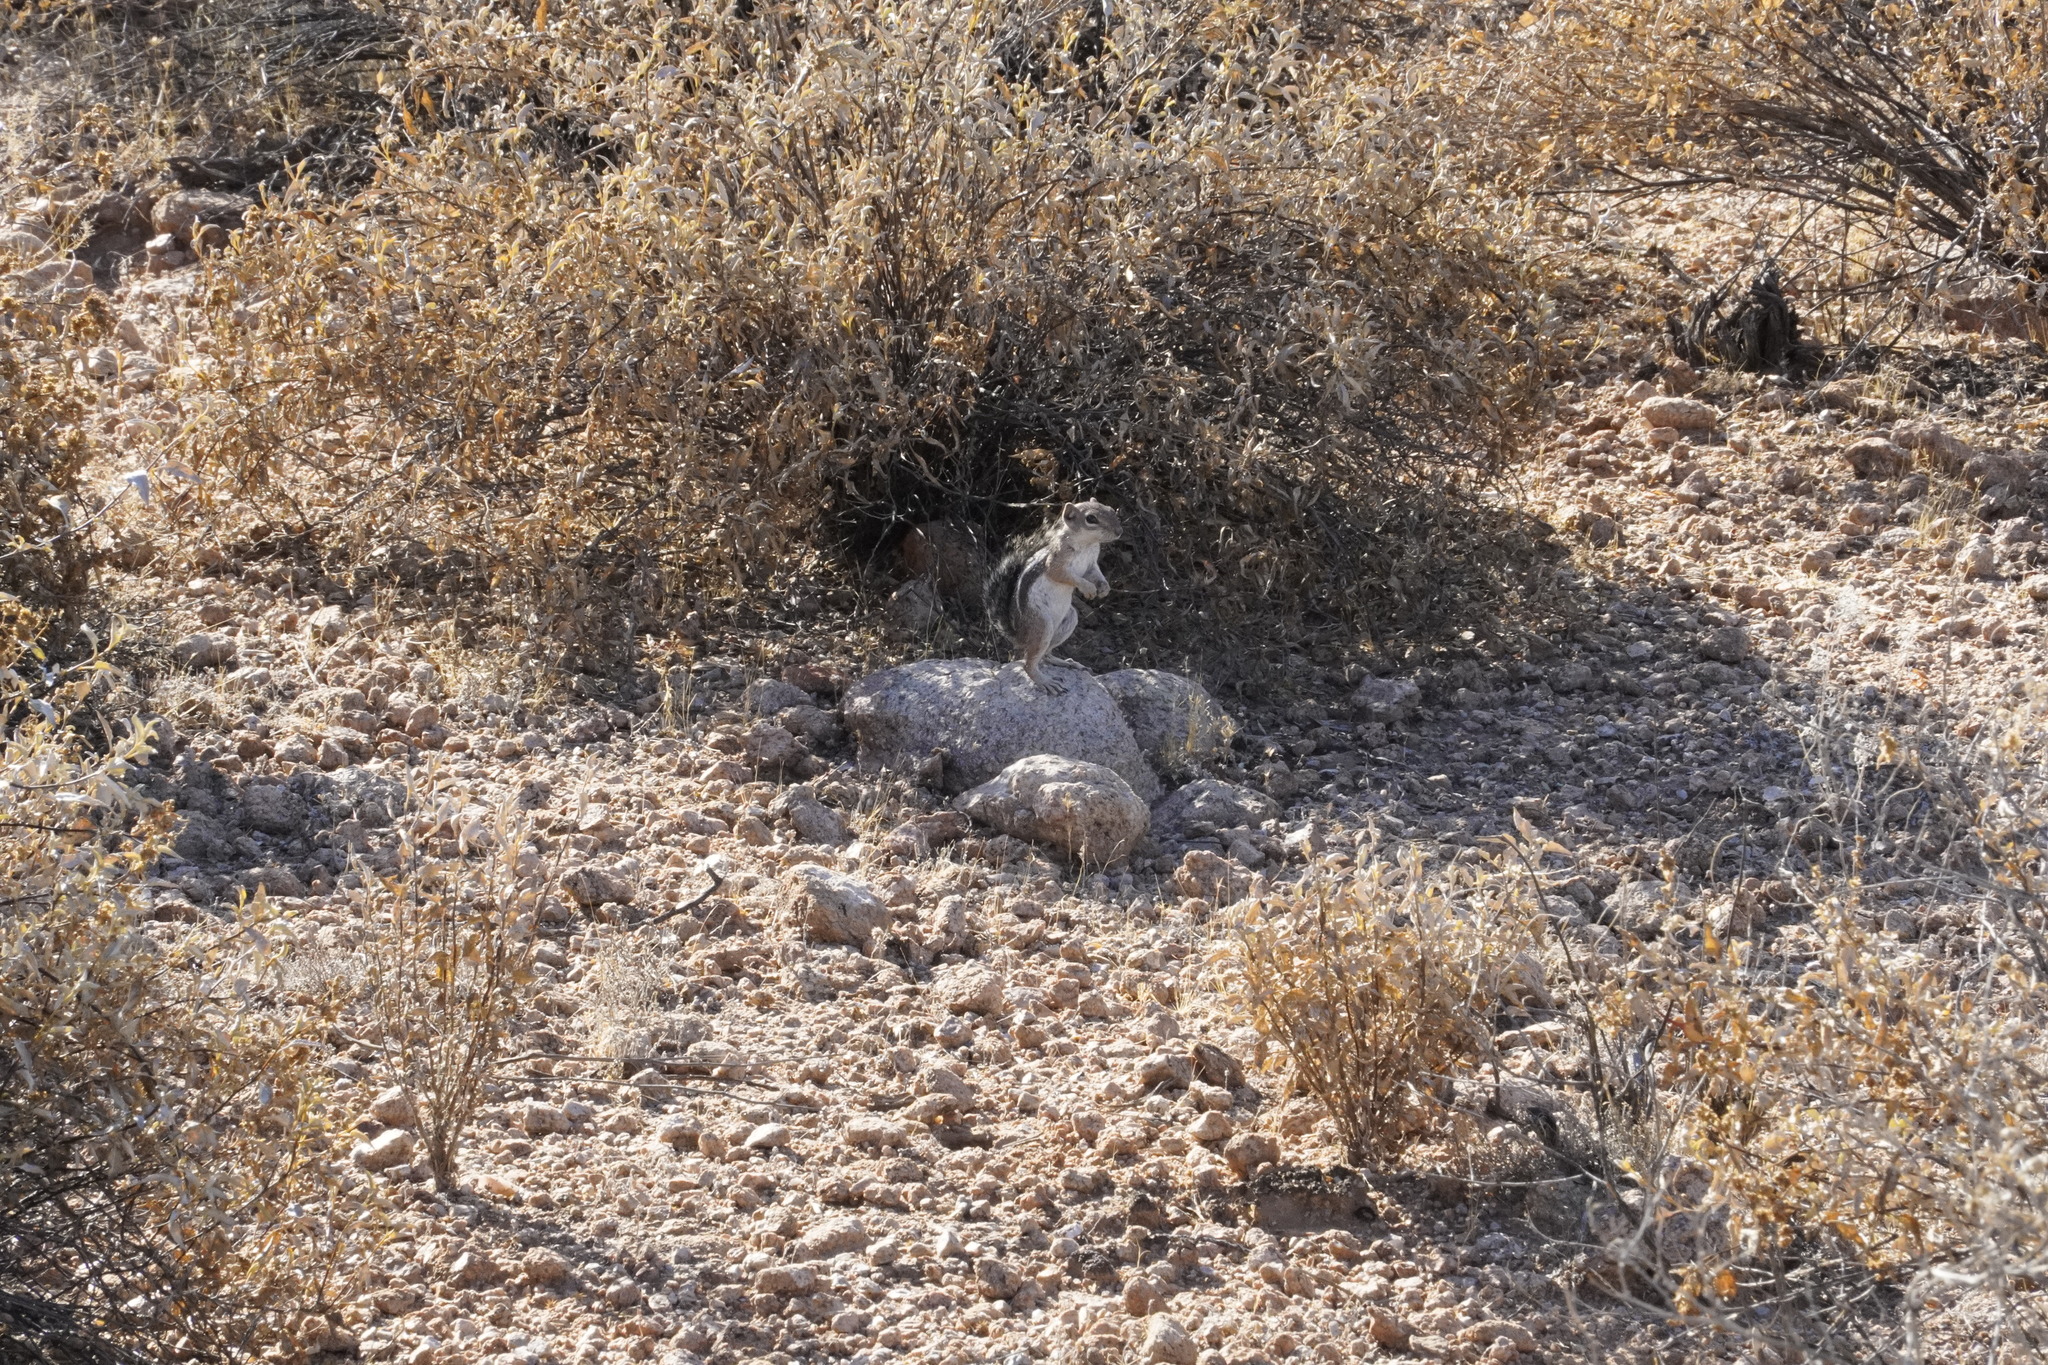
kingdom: Animalia
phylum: Chordata
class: Mammalia
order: Rodentia
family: Sciuridae
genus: Ammospermophilus
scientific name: Ammospermophilus harrisii
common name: Harris's antelope squirrel
